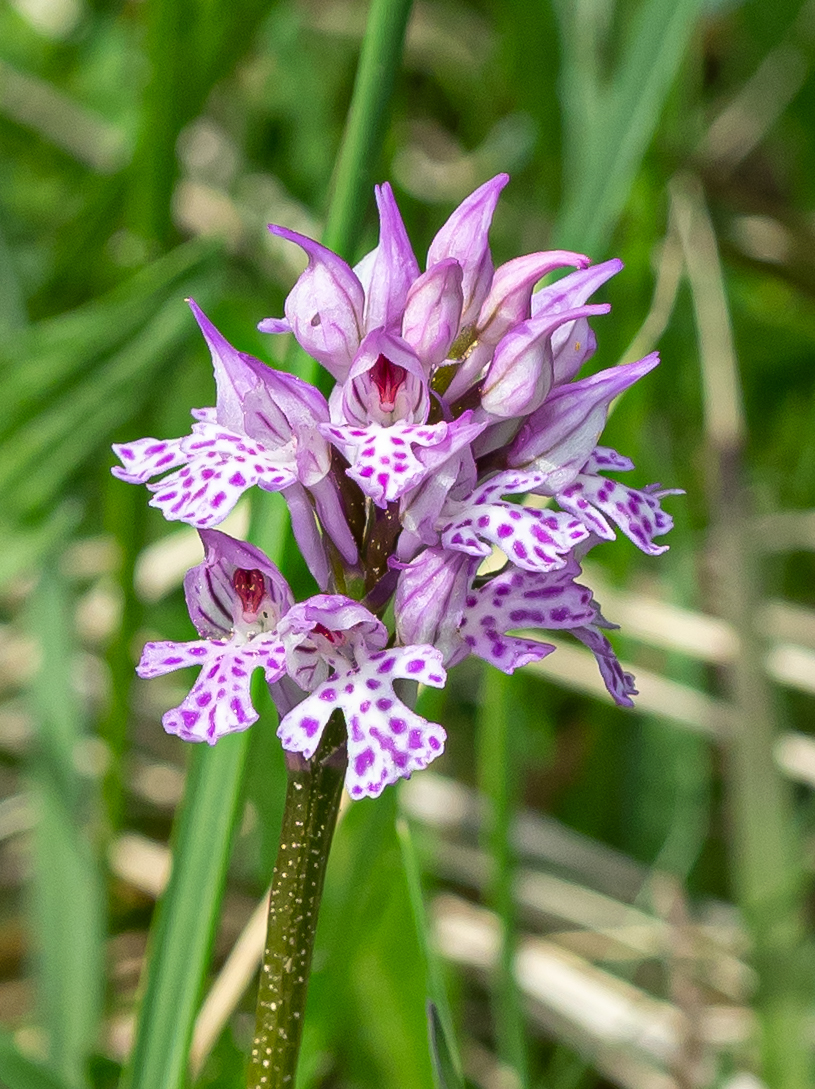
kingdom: Plantae
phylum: Tracheophyta
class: Liliopsida
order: Asparagales
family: Orchidaceae
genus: Neotinea
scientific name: Neotinea tridentata
